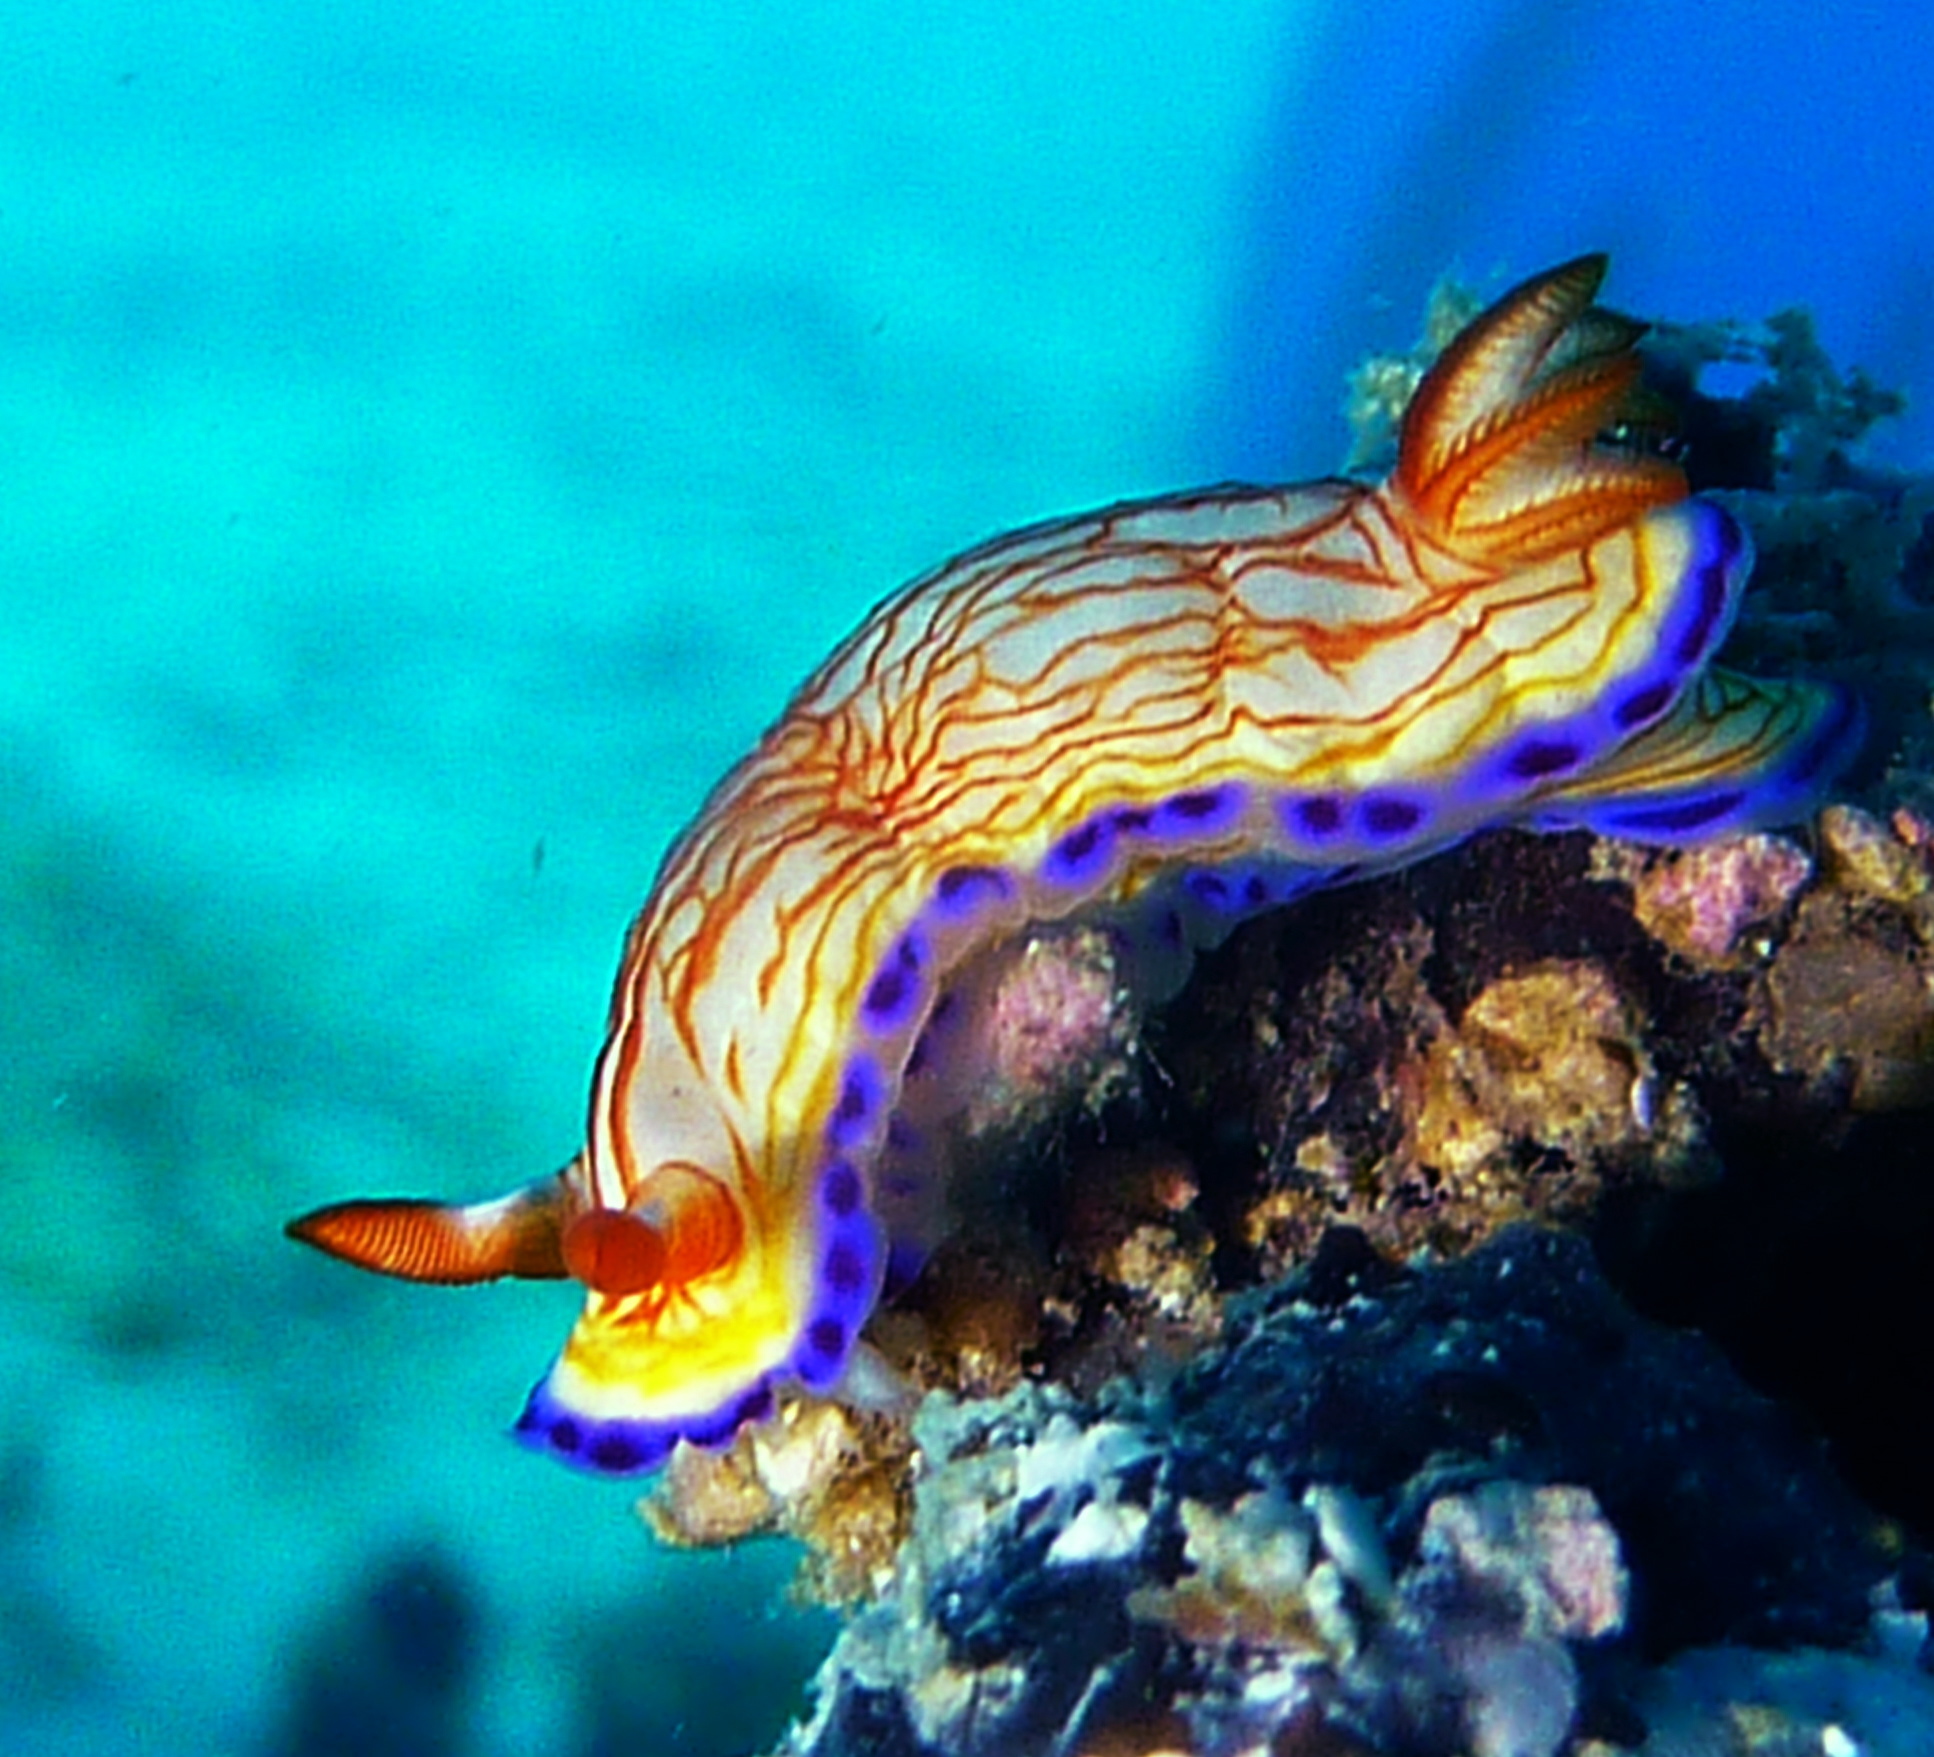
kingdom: Animalia
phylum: Mollusca
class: Gastropoda
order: Nudibranchia
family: Chromodorididae
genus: Hypselodoris
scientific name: Hypselodoris katherinae
